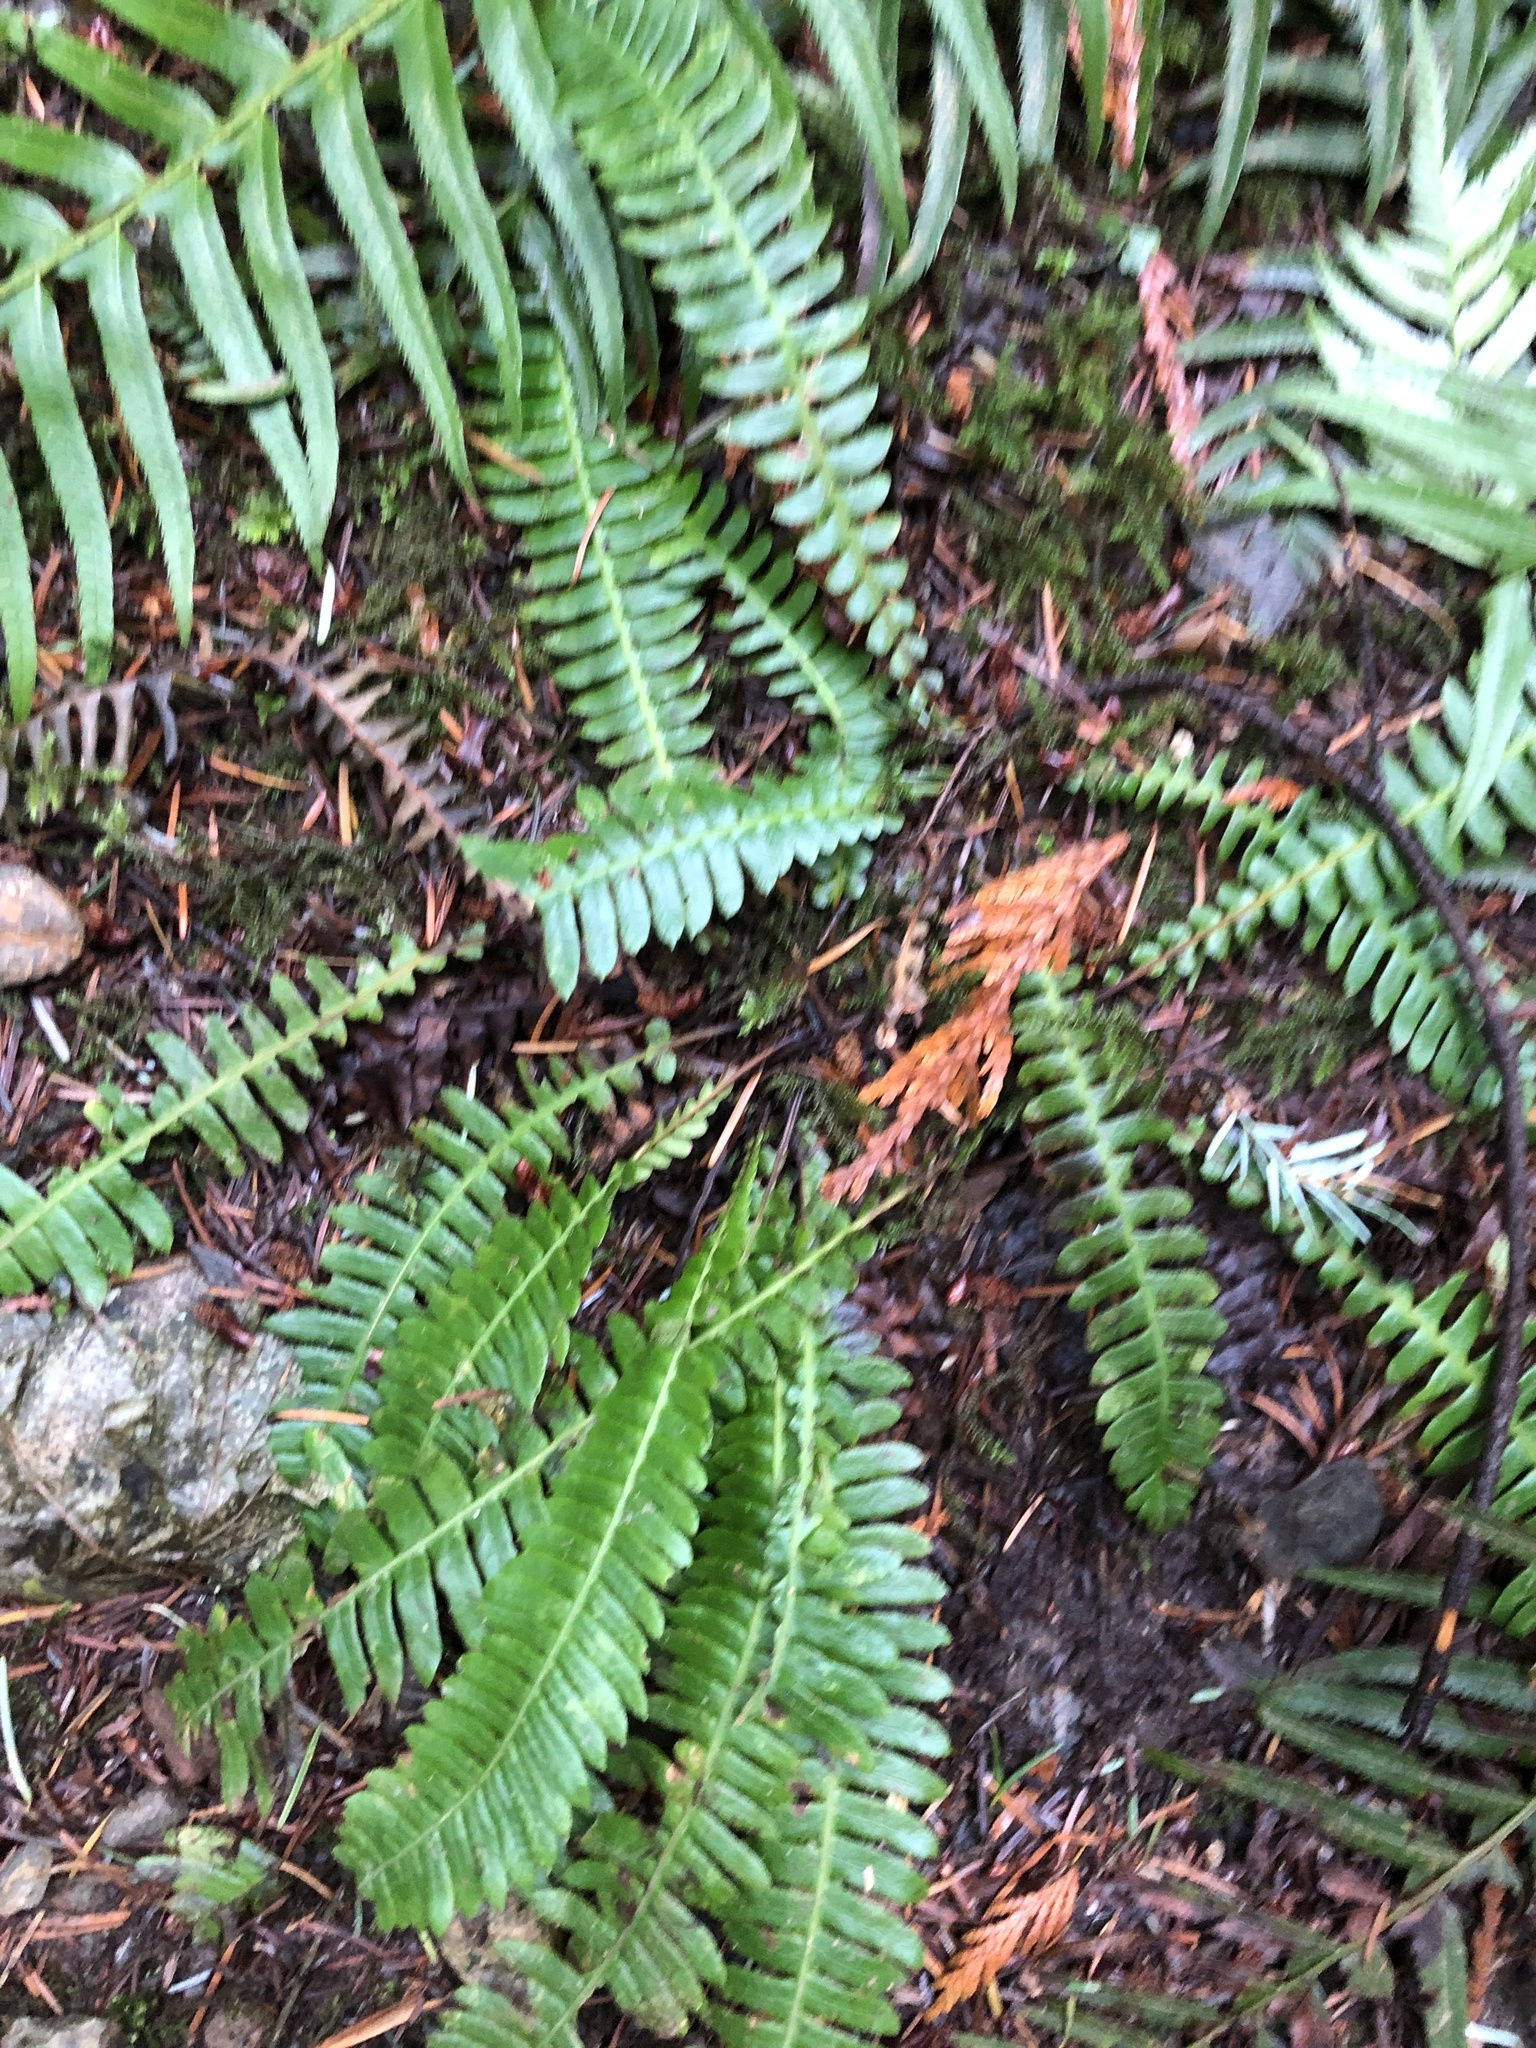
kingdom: Plantae
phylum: Tracheophyta
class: Polypodiopsida
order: Polypodiales
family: Blechnaceae
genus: Struthiopteris
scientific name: Struthiopteris spicant
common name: Deer fern
